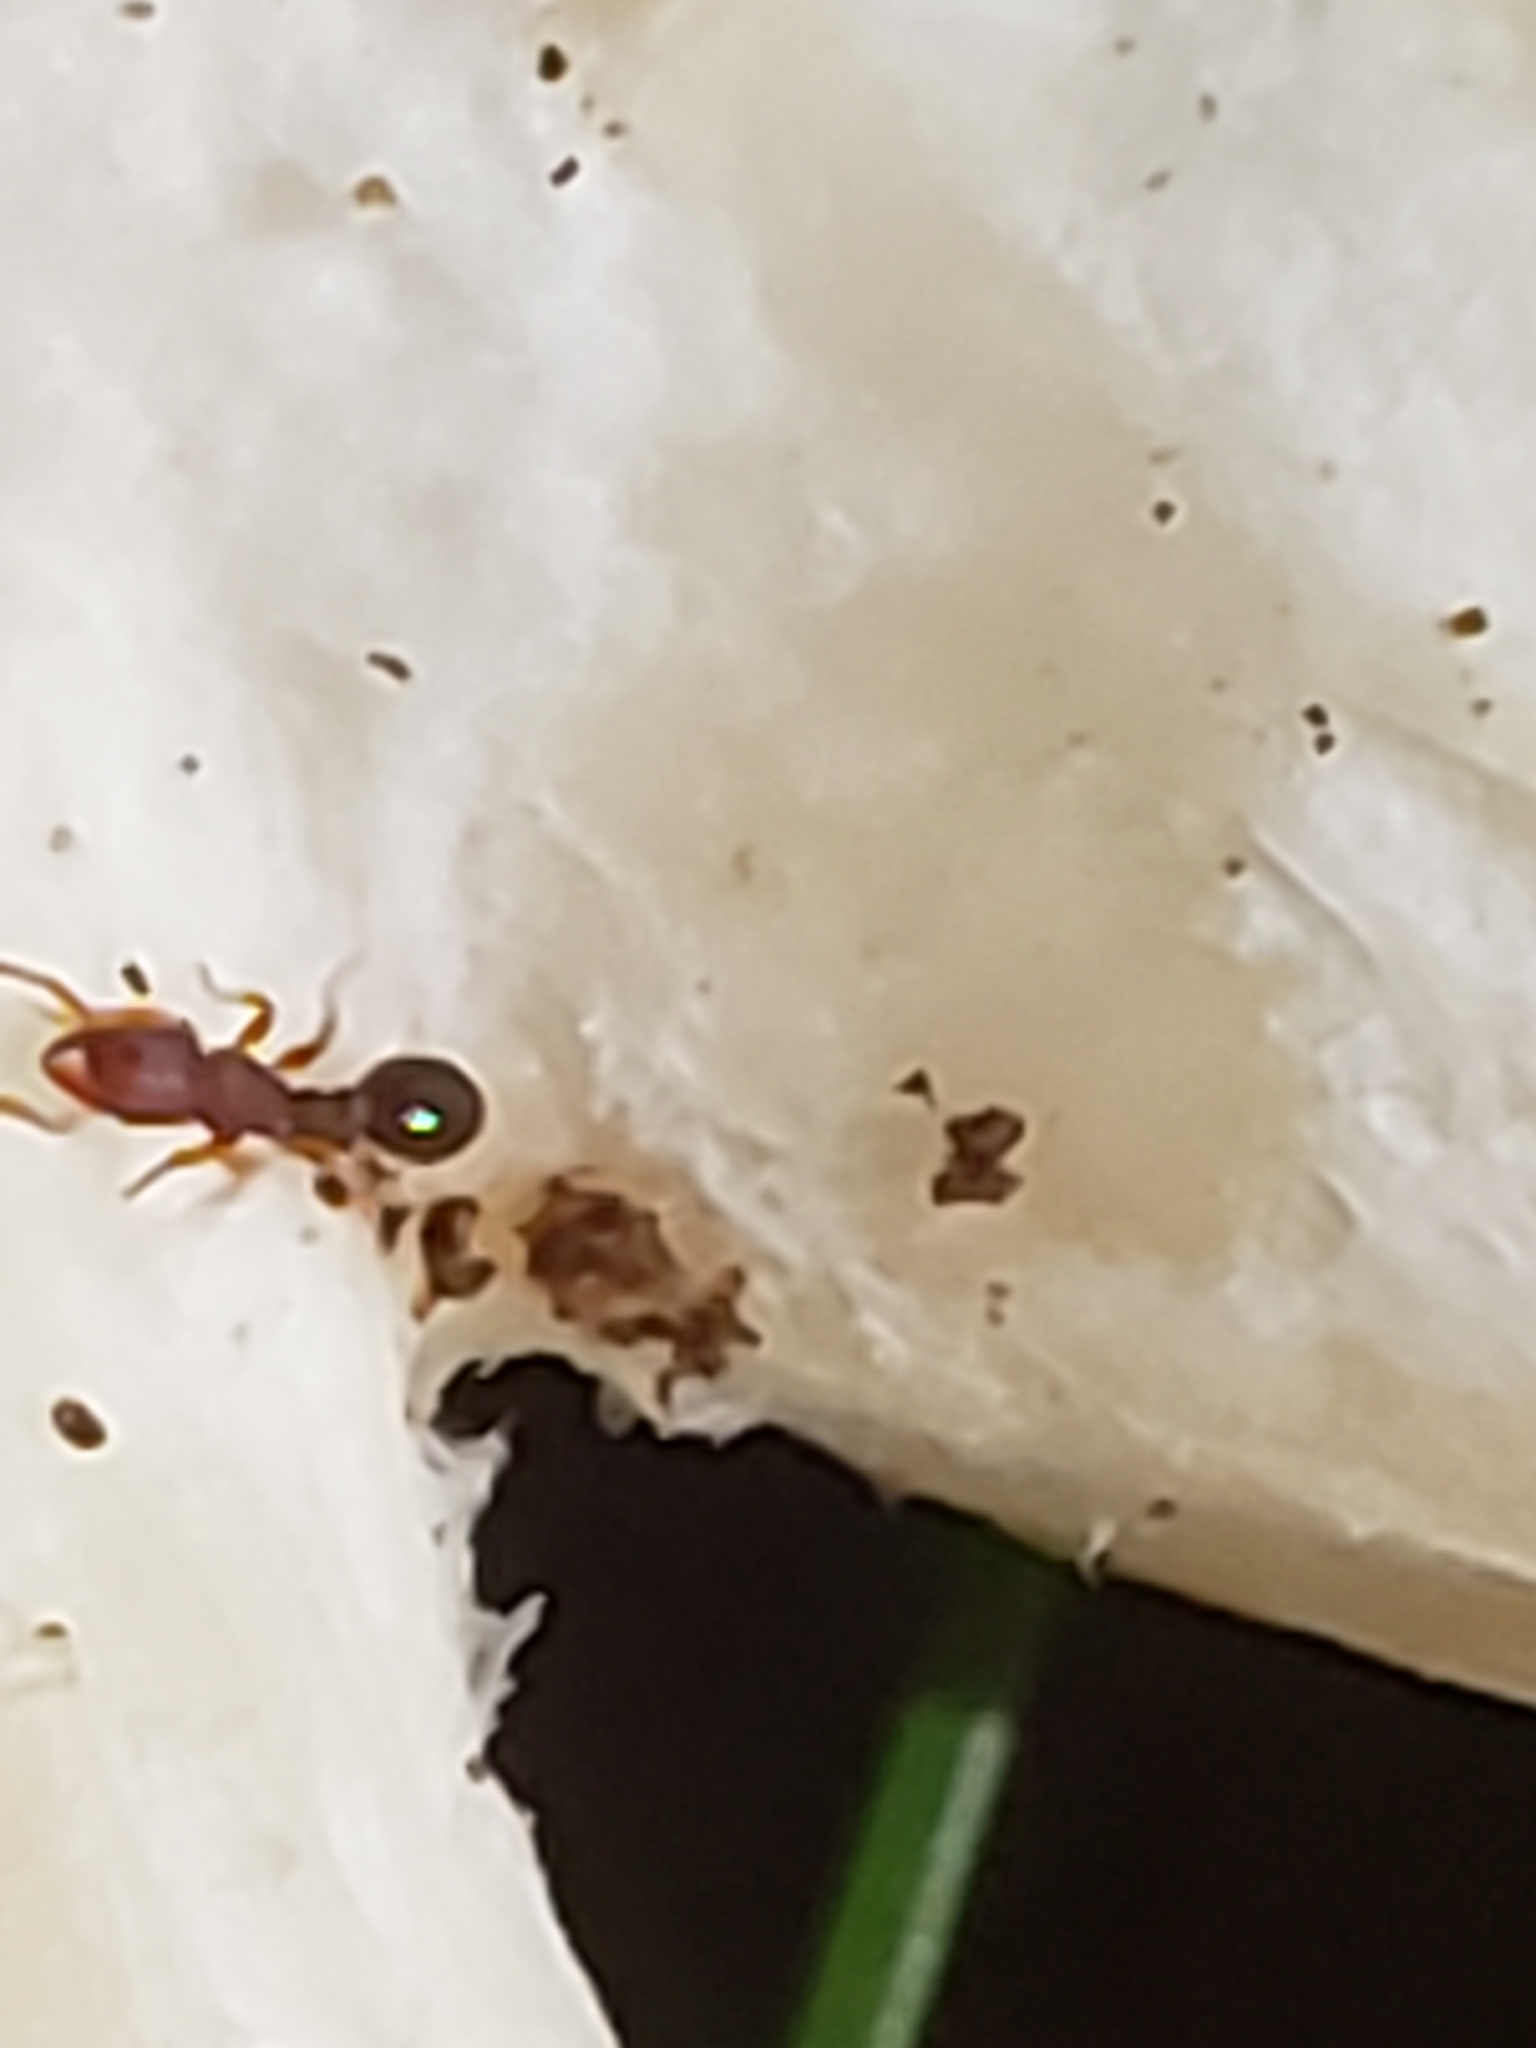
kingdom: Animalia
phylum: Arthropoda
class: Insecta
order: Hymenoptera
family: Formicidae
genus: Vollenhovia
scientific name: Vollenhovia emeryi
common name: Ant
